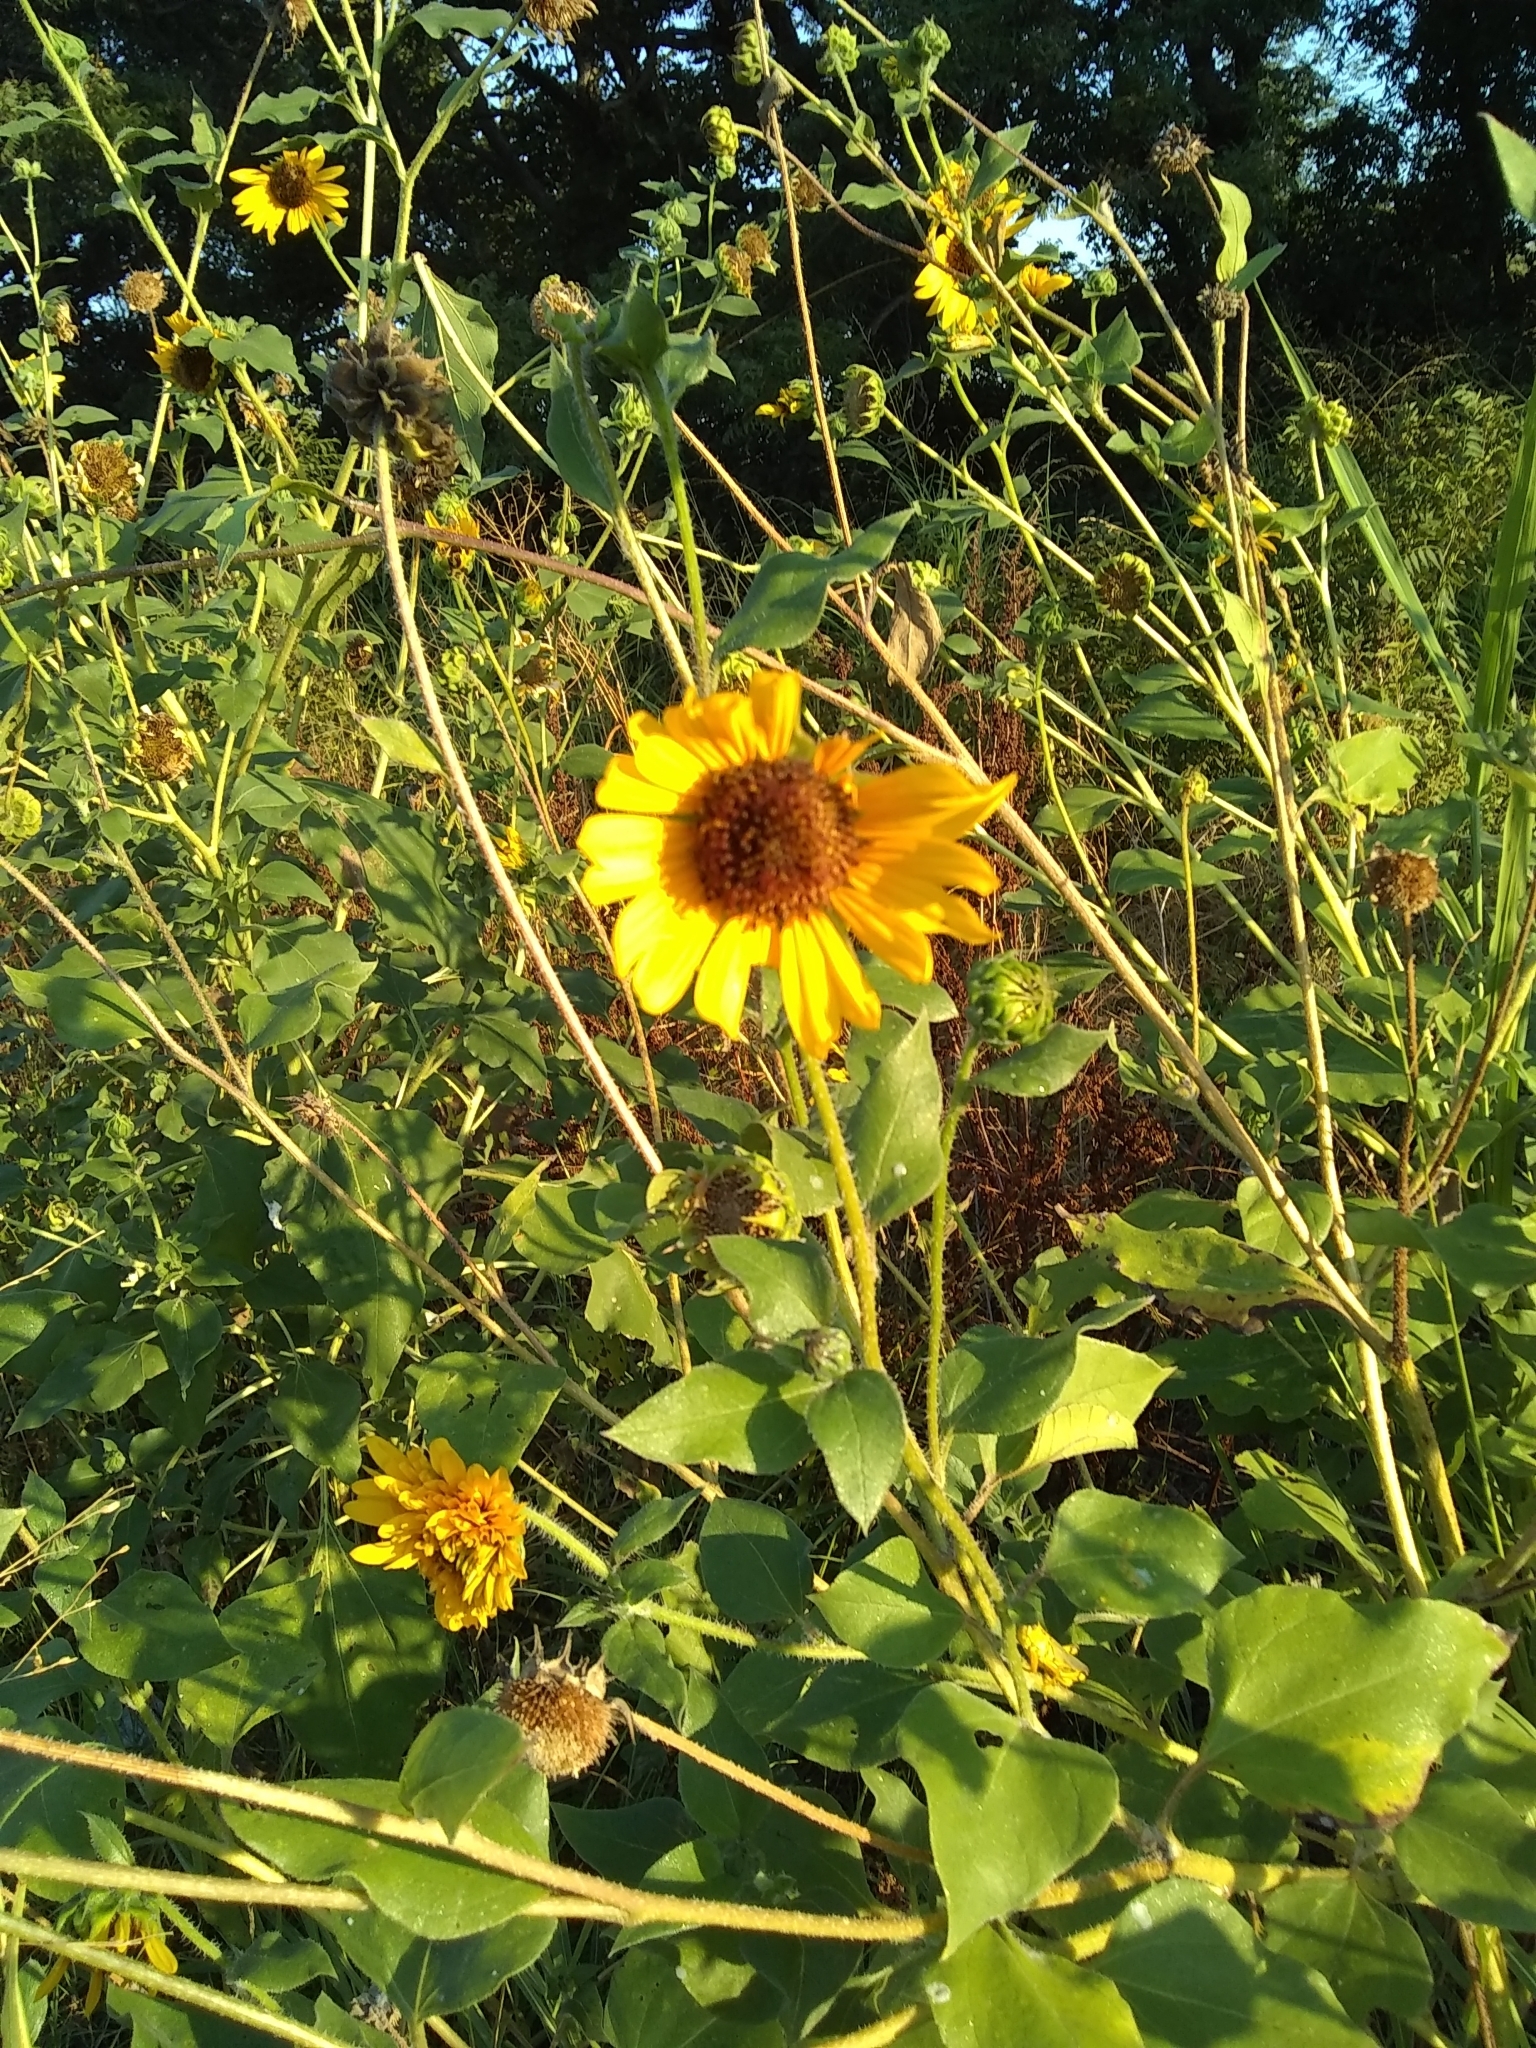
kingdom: Plantae
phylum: Tracheophyta
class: Magnoliopsida
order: Asterales
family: Asteraceae
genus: Helianthus
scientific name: Helianthus annuus
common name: Sunflower
